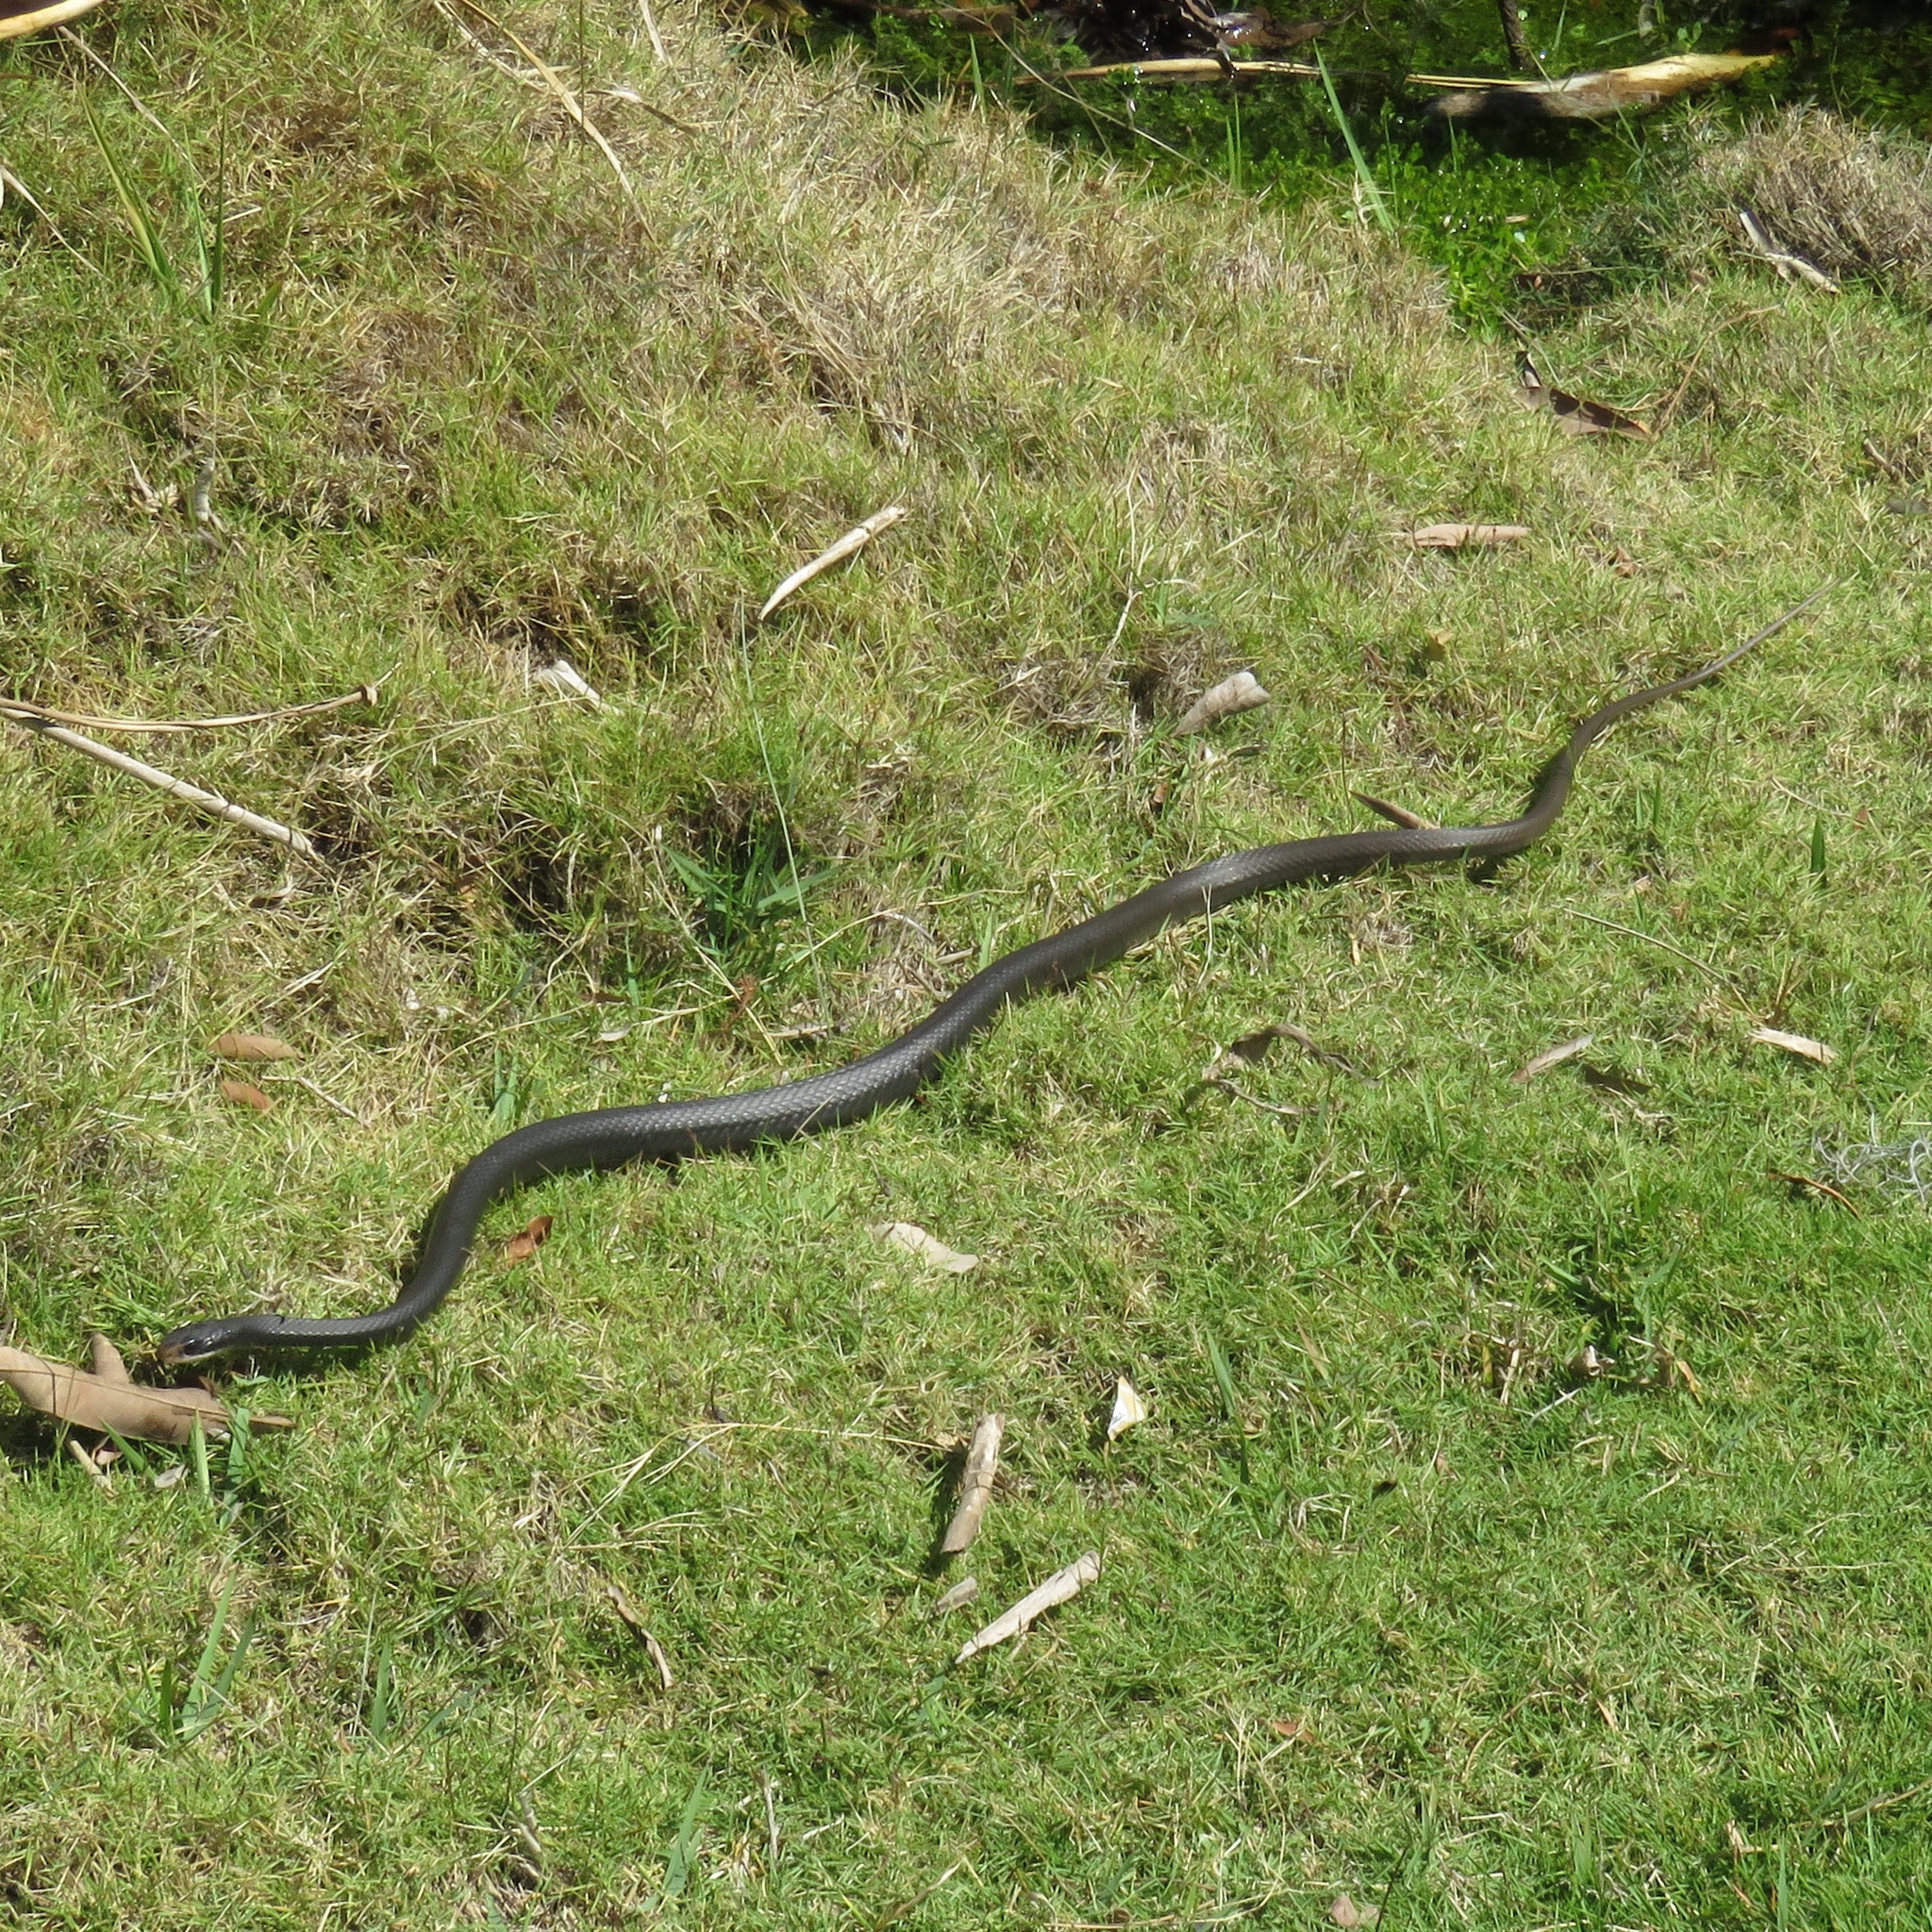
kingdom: Animalia
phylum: Chordata
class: Squamata
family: Colubridae
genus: Coluber
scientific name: Coluber constrictor
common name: Eastern racer
